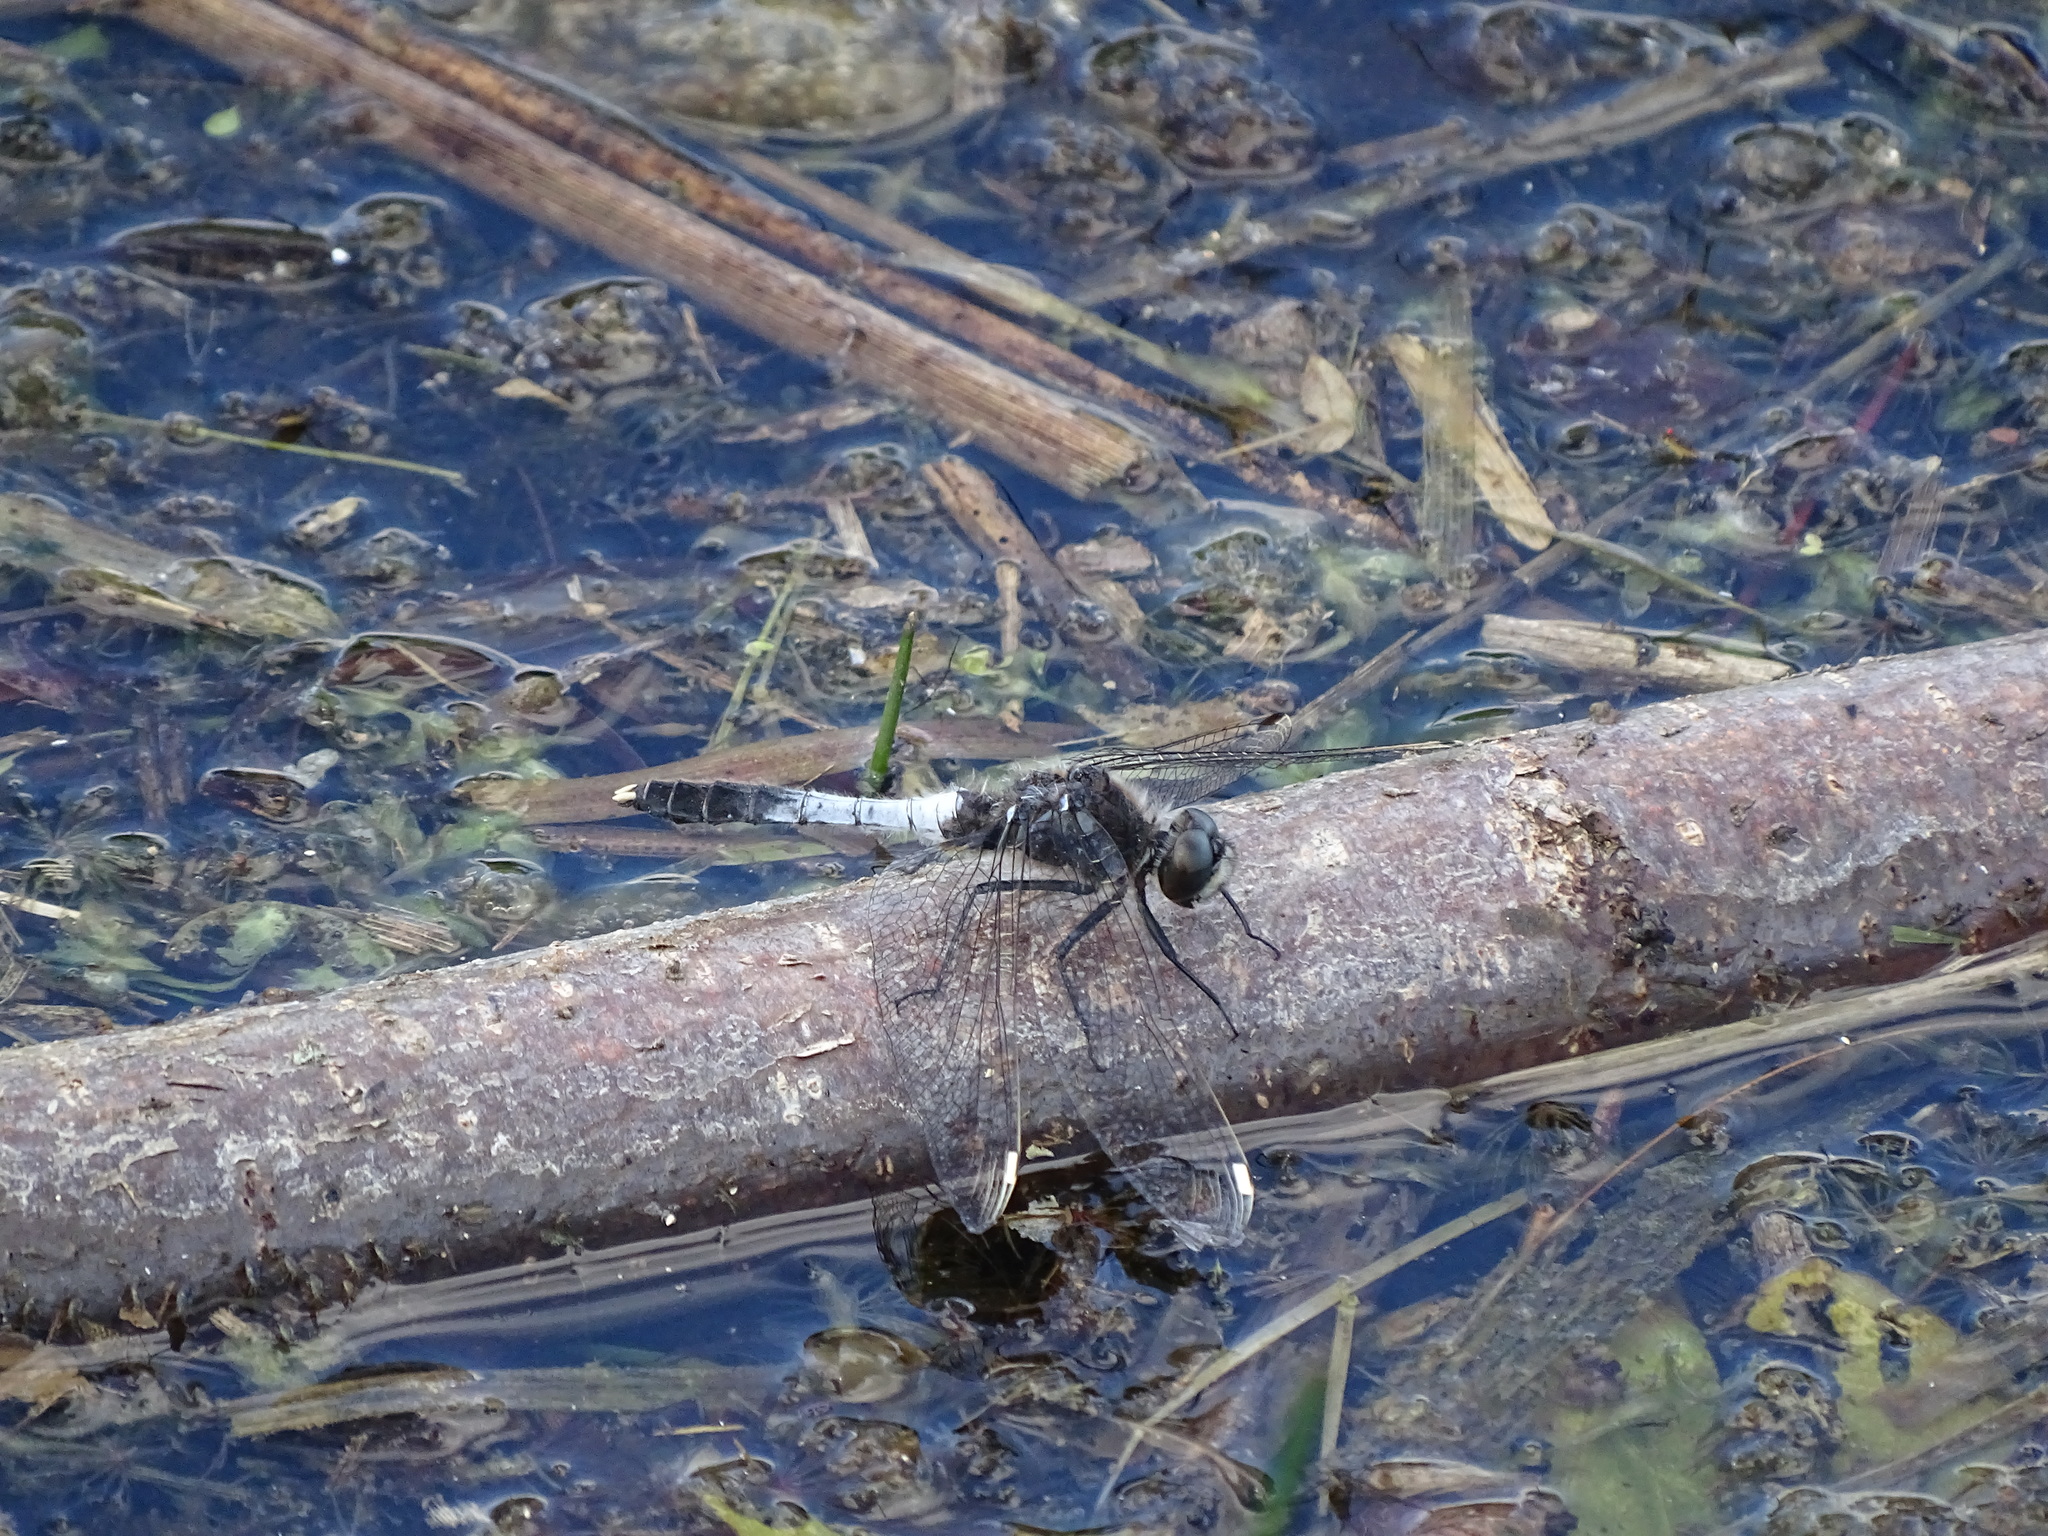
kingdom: Animalia
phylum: Arthropoda
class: Insecta
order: Odonata
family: Libellulidae
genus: Leucorrhinia
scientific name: Leucorrhinia caudalis
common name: Lilypad whiteface
